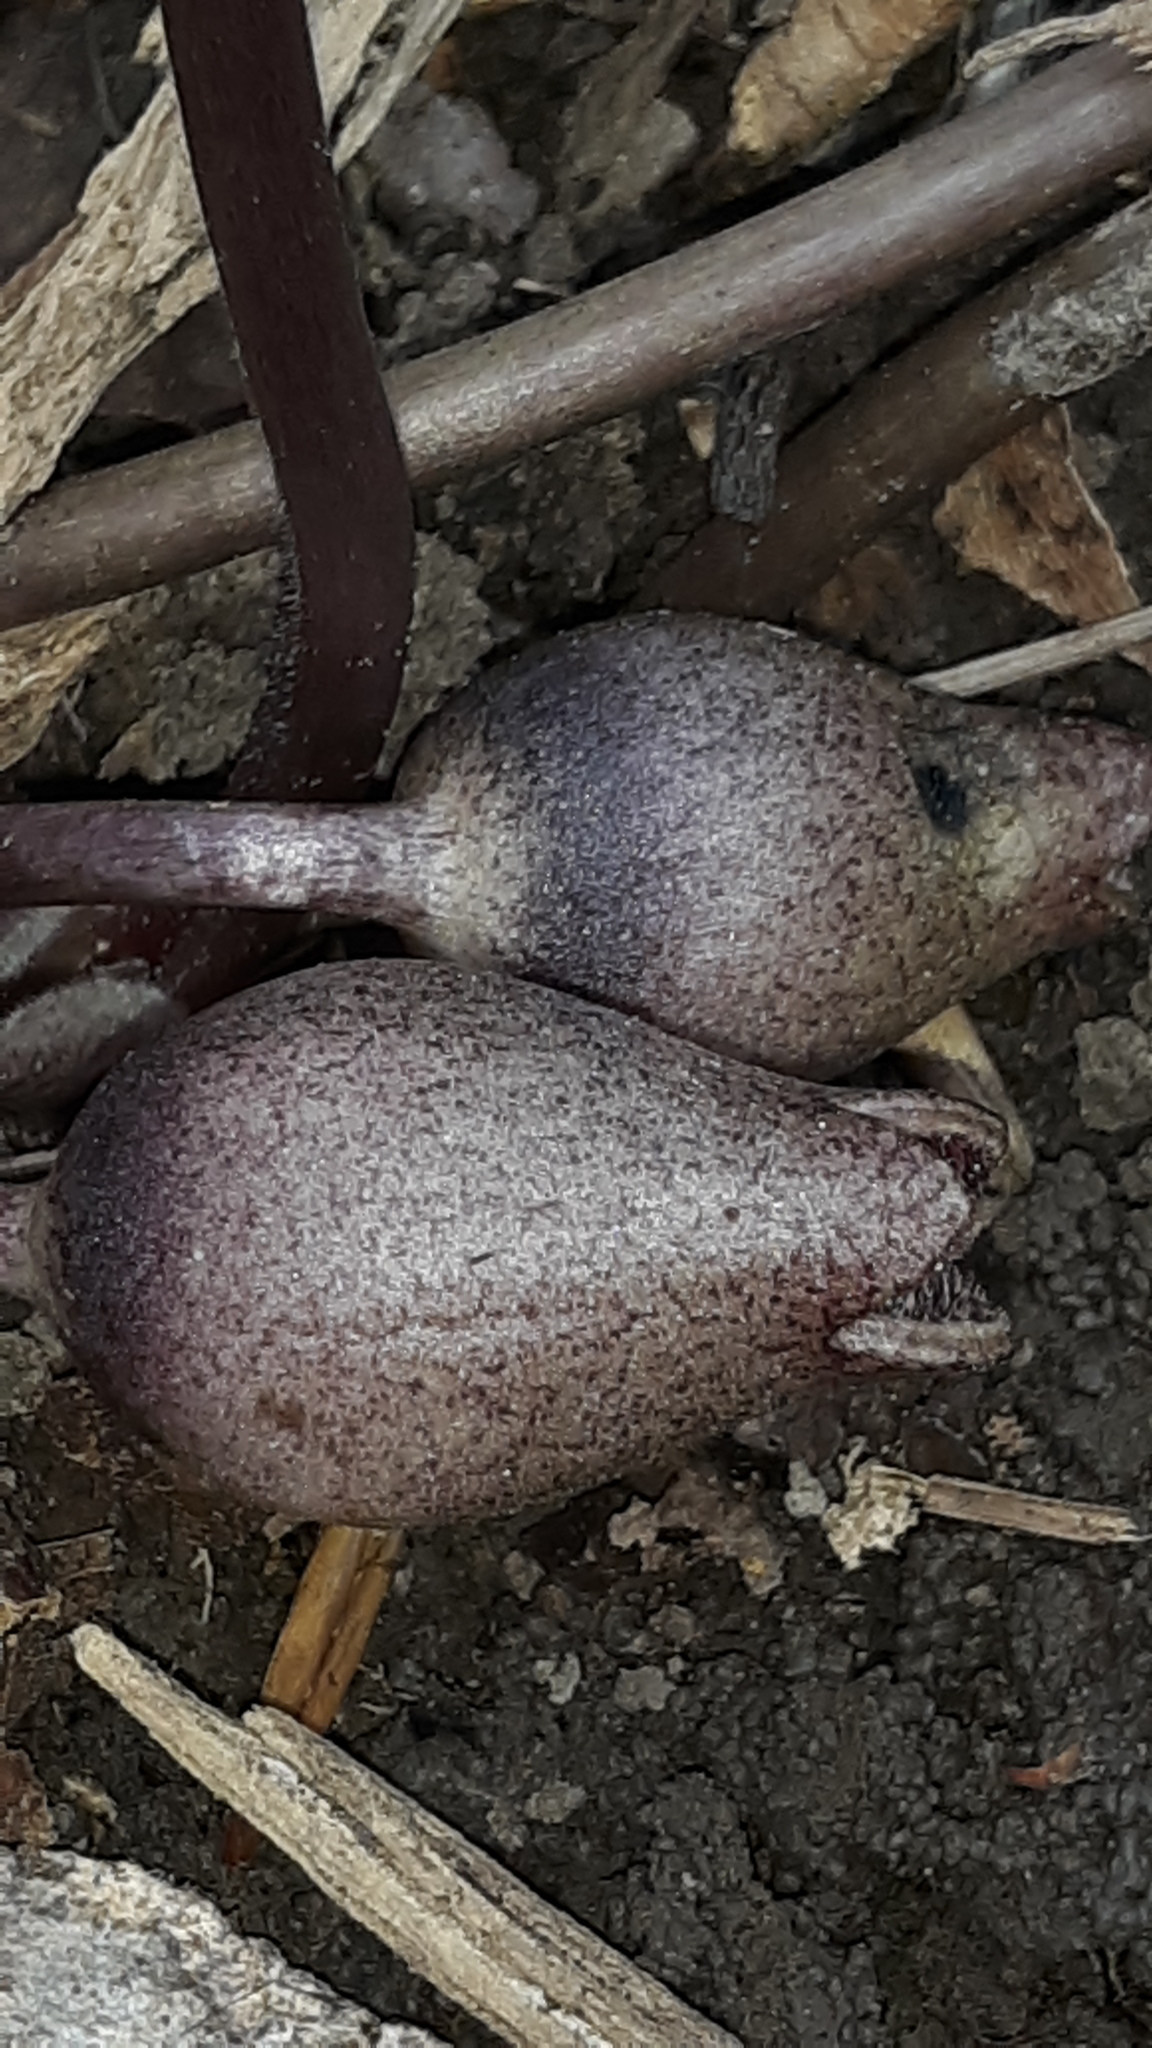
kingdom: Plantae
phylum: Tracheophyta
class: Magnoliopsida
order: Piperales
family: Aristolochiaceae
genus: Hexastylis
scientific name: Hexastylis arifolia
